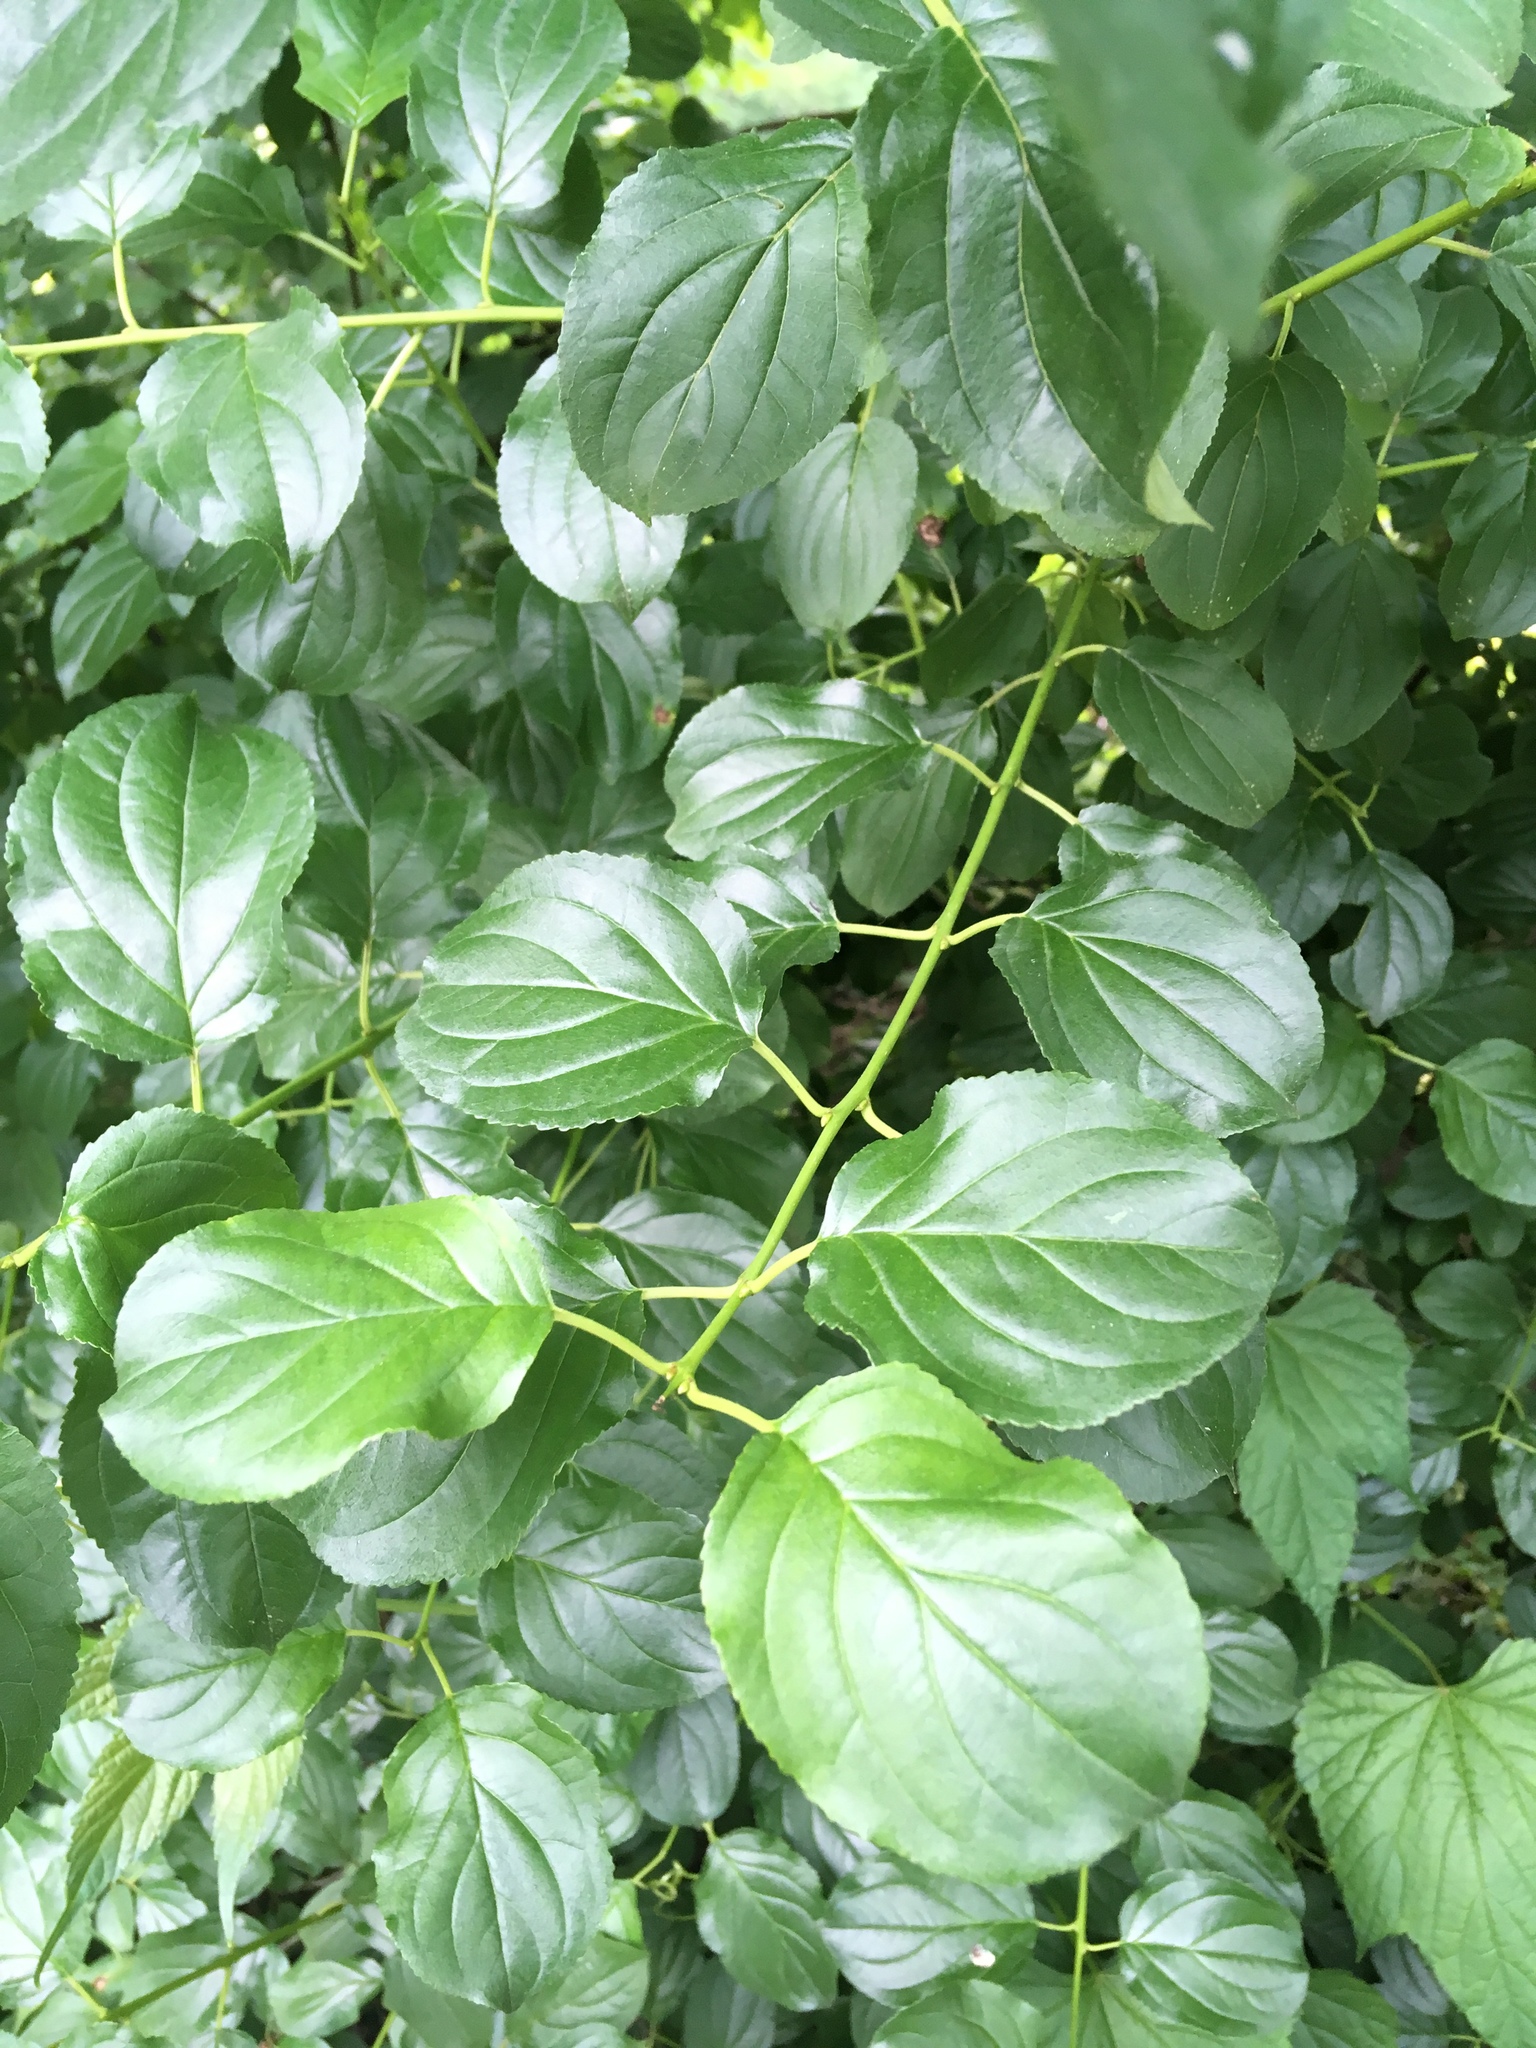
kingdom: Plantae
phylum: Tracheophyta
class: Magnoliopsida
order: Rosales
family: Rhamnaceae
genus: Rhamnus
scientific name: Rhamnus cathartica
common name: Common buckthorn
